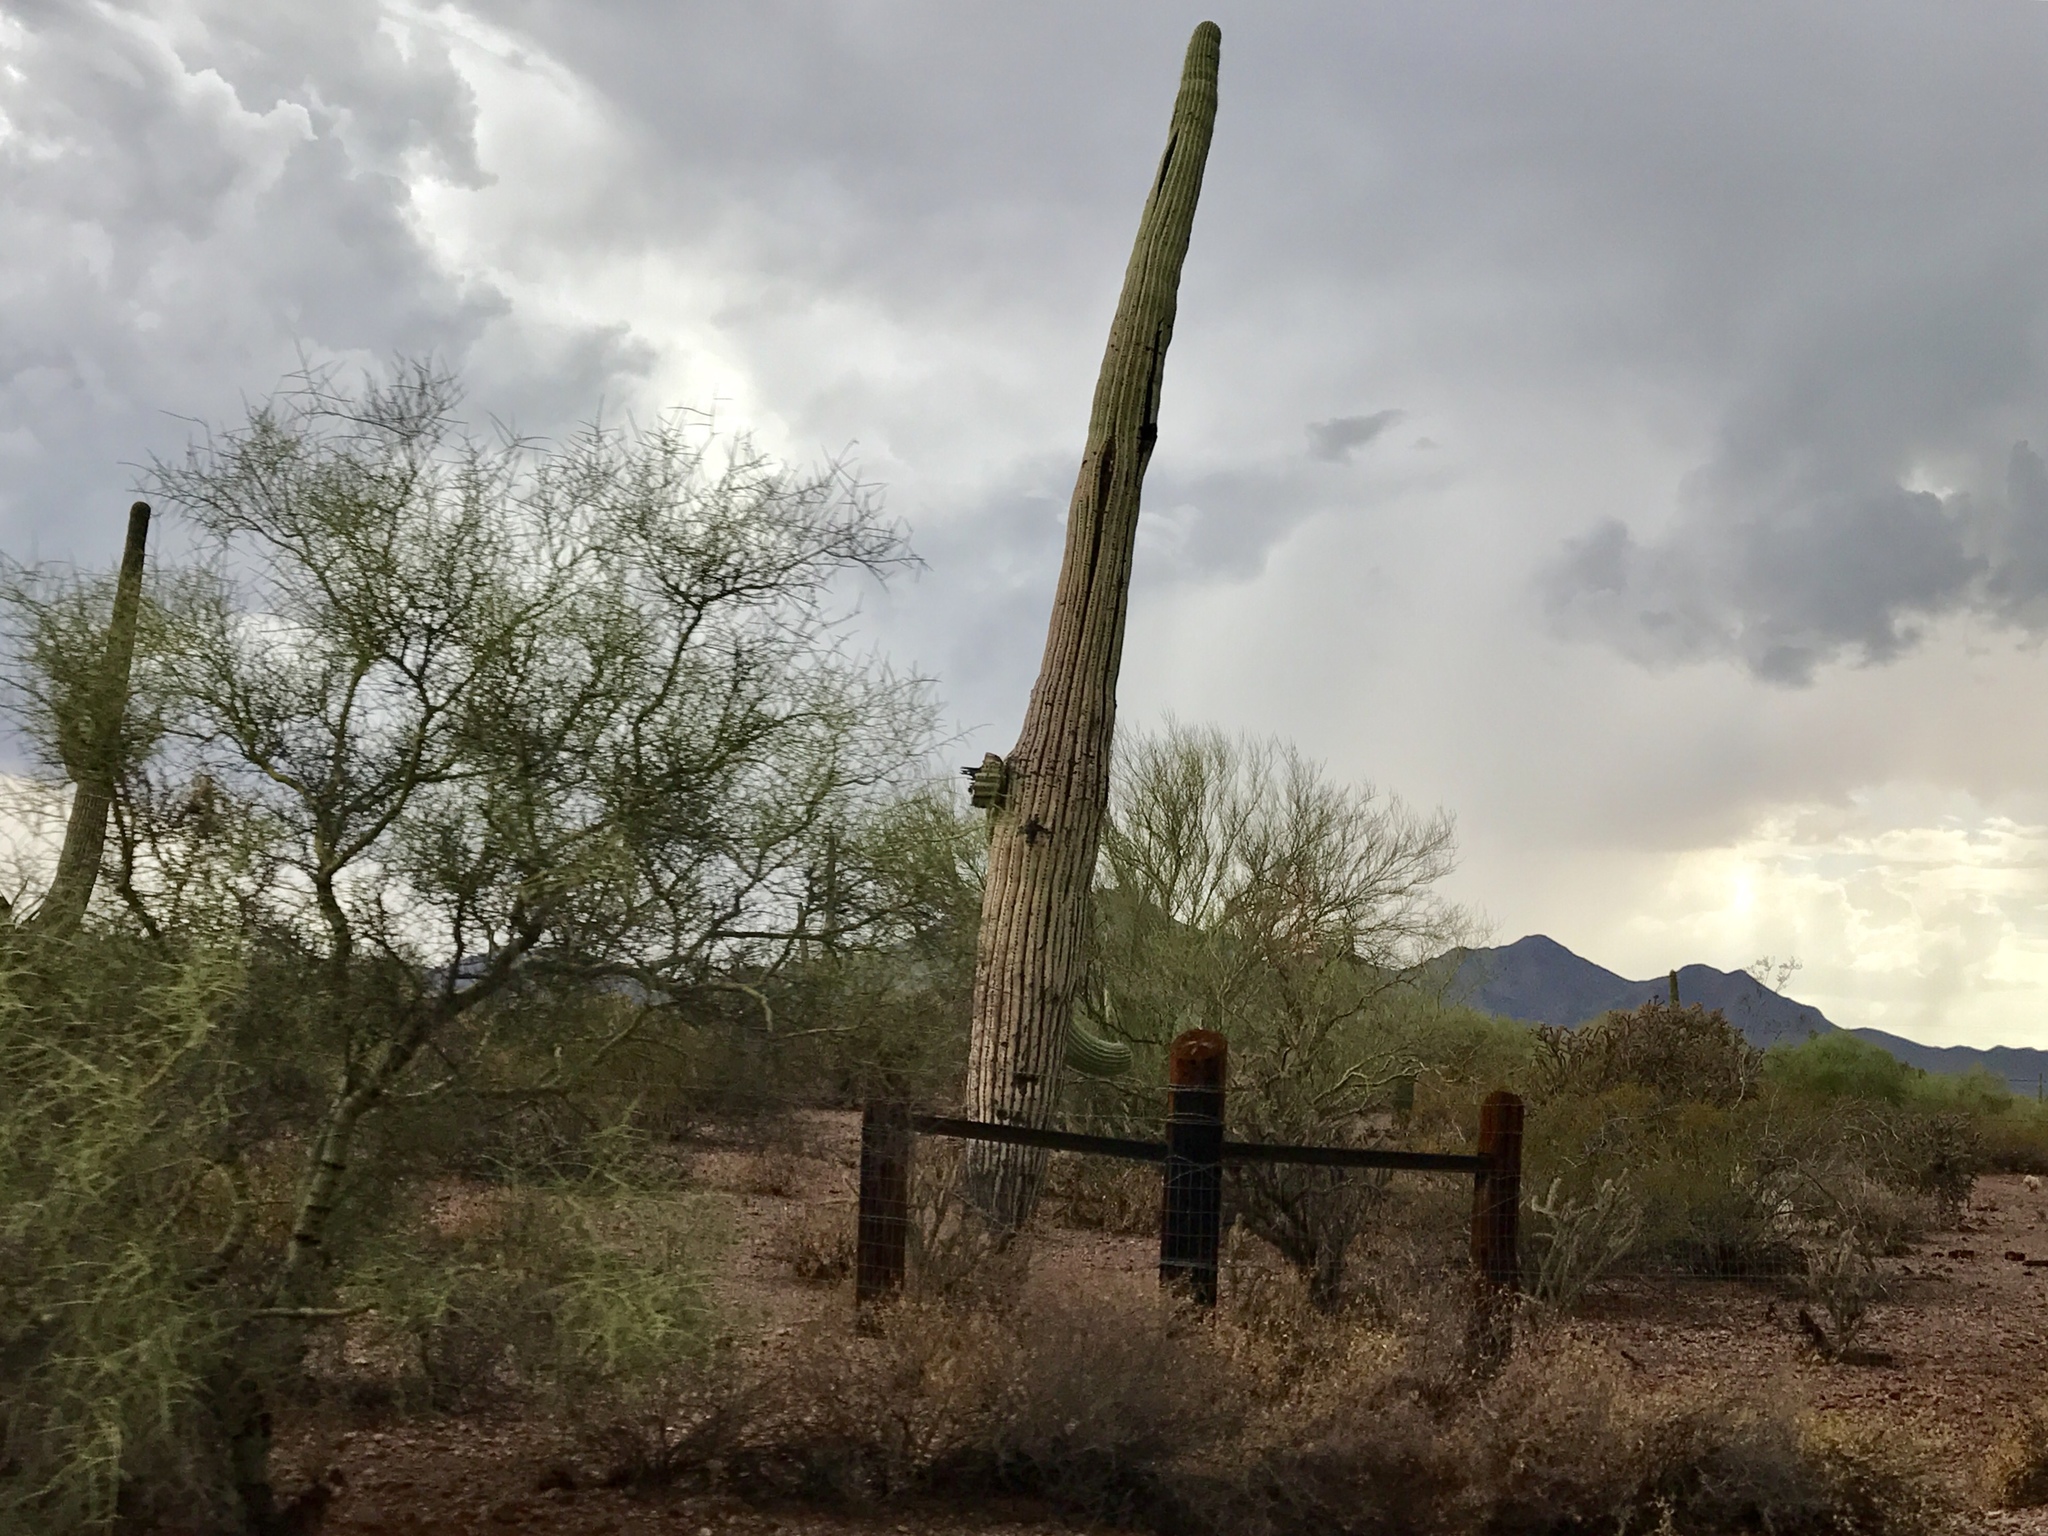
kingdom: Plantae
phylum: Tracheophyta
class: Magnoliopsida
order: Caryophyllales
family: Cactaceae
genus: Carnegiea
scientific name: Carnegiea gigantea
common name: Saguaro
